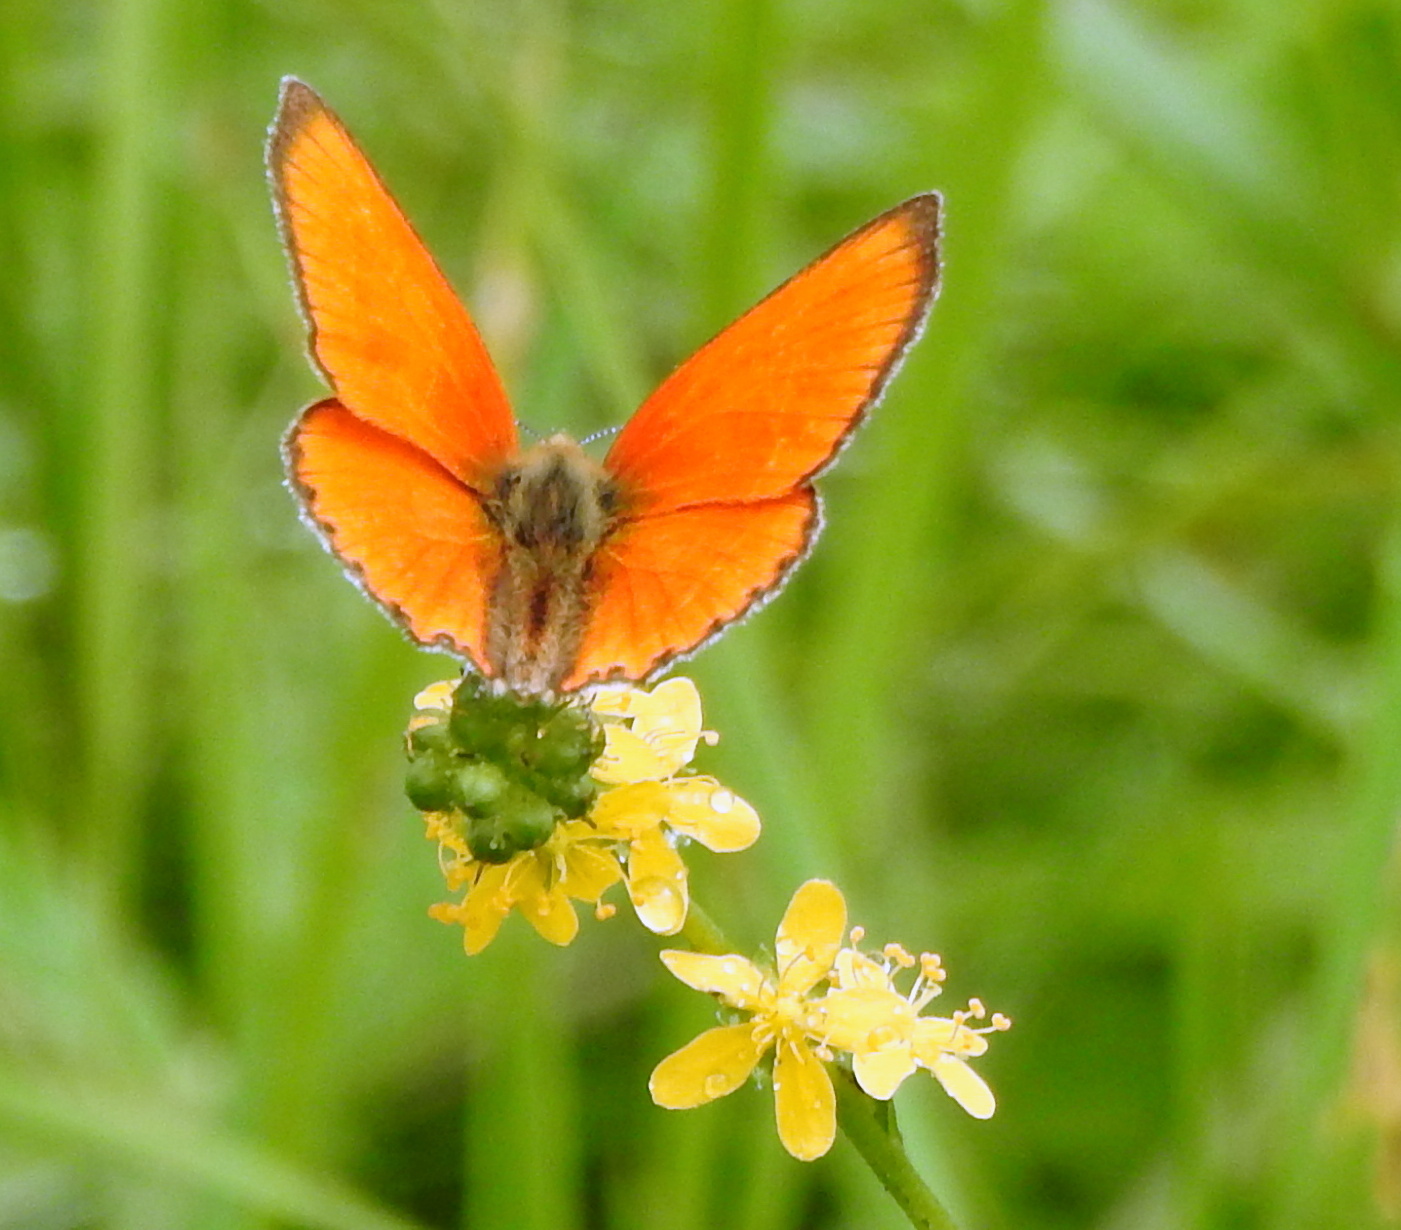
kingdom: Animalia
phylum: Arthropoda
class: Insecta
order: Lepidoptera
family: Lycaenidae
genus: Lycaena
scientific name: Lycaena virgaureae
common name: Scarce copper
